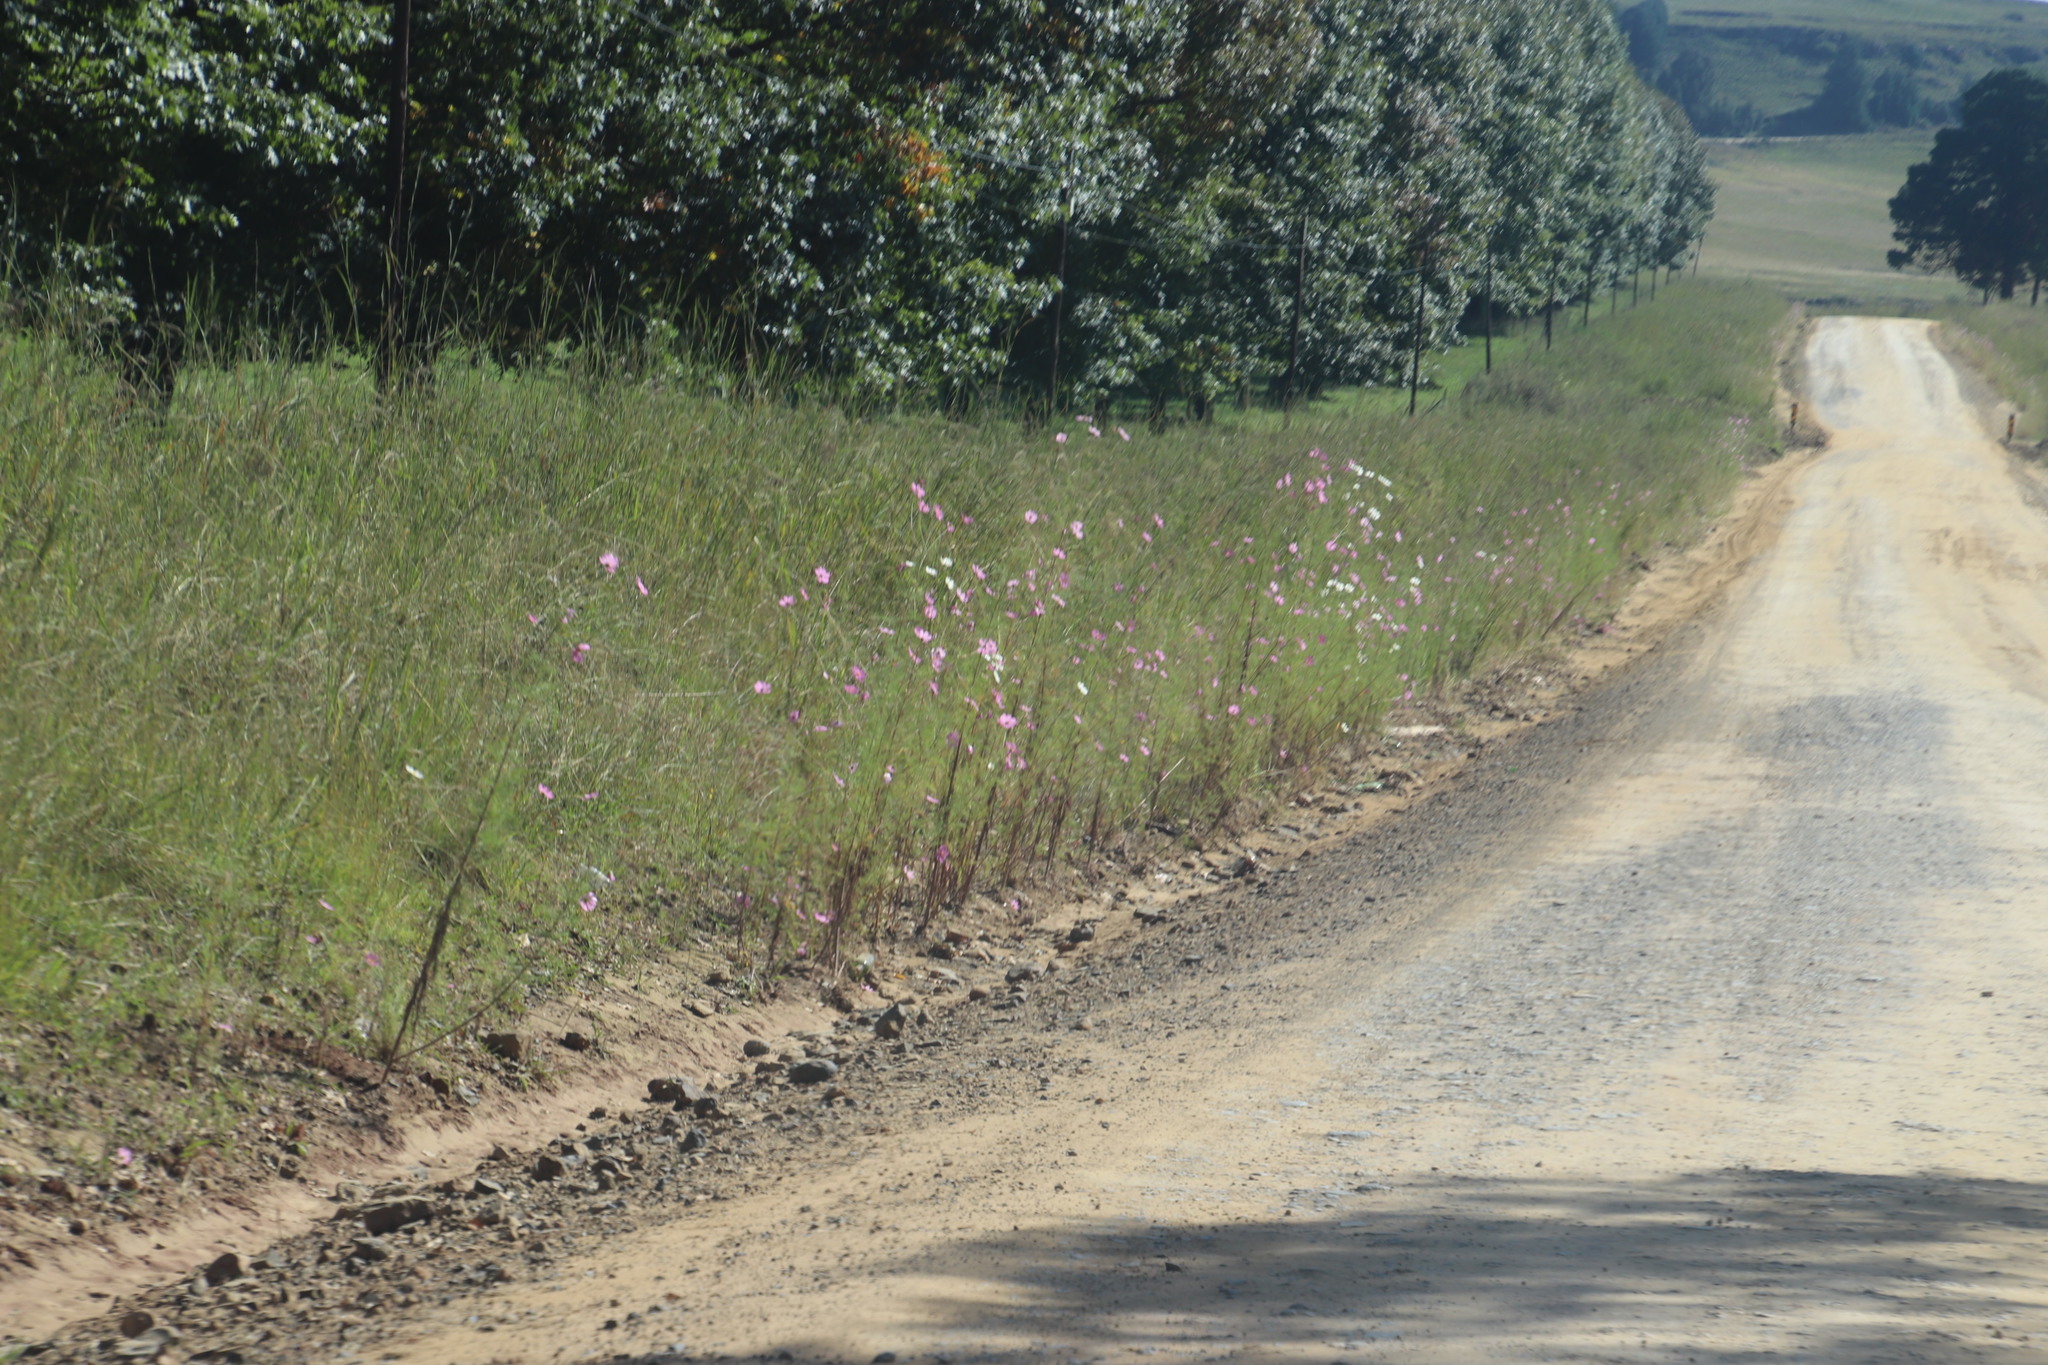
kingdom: Plantae
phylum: Tracheophyta
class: Magnoliopsida
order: Asterales
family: Asteraceae
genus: Cosmos
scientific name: Cosmos bipinnatus
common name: Garden cosmos
